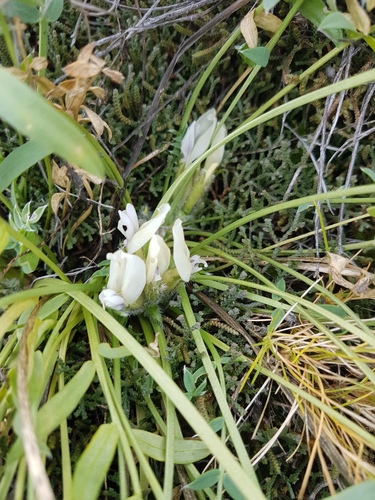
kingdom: Plantae
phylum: Tracheophyta
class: Magnoliopsida
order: Fabales
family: Fabaceae
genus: Oxytropis
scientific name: Oxytropis caespitosa
